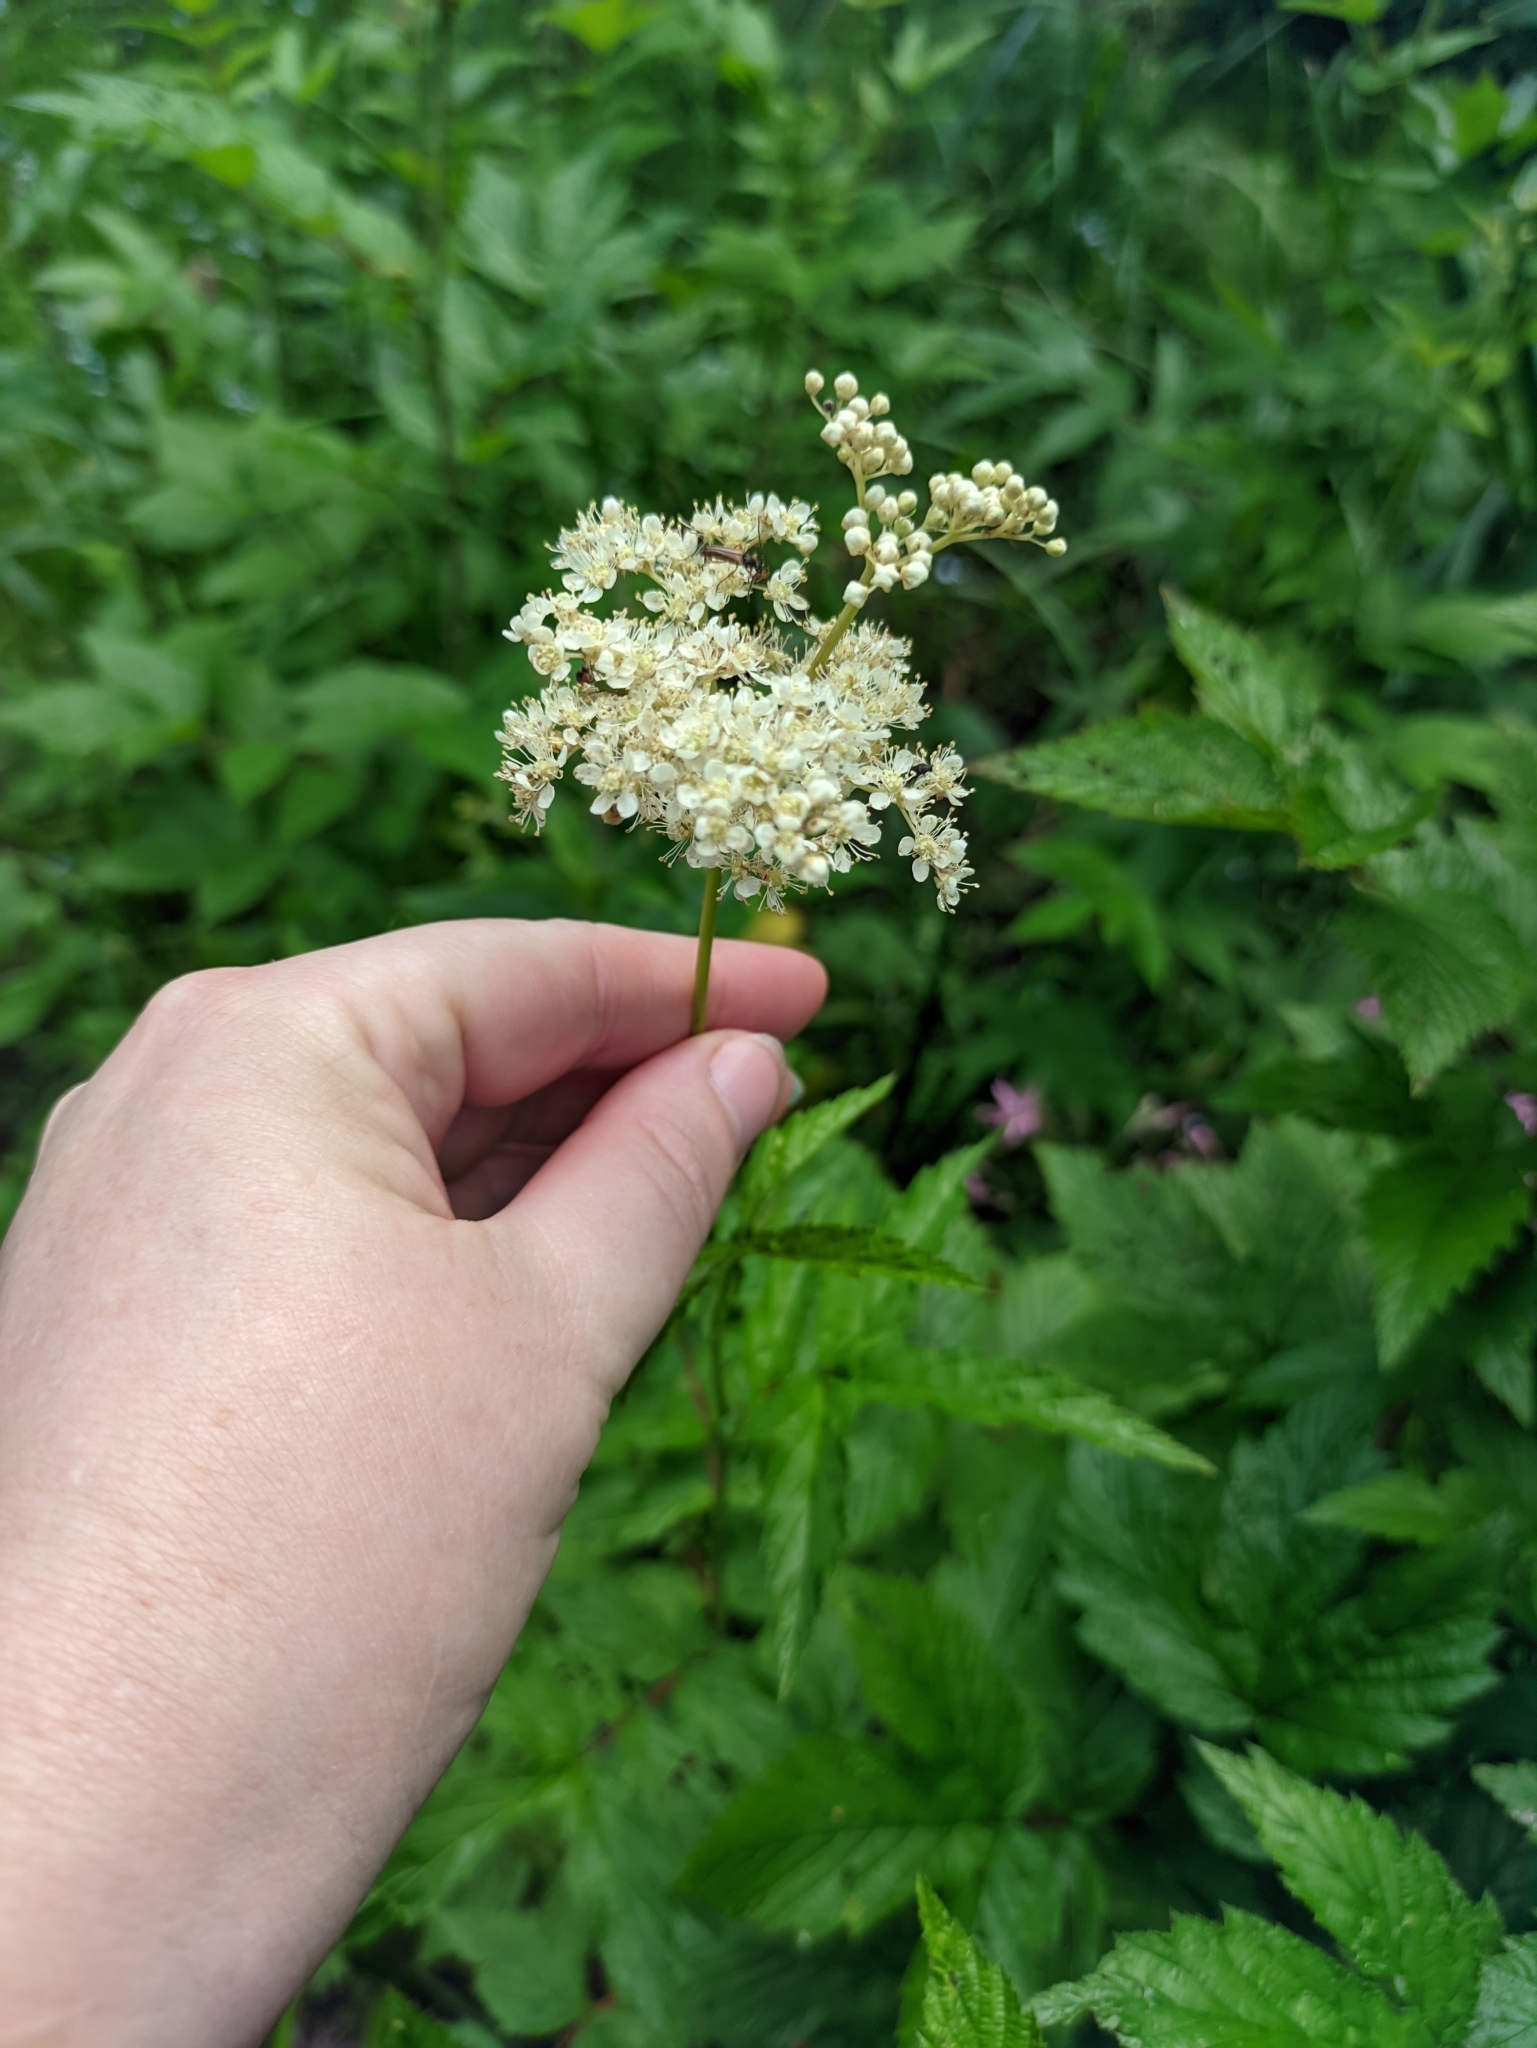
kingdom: Plantae
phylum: Tracheophyta
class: Magnoliopsida
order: Rosales
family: Rosaceae
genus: Filipendula
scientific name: Filipendula ulmaria
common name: Meadowsweet
